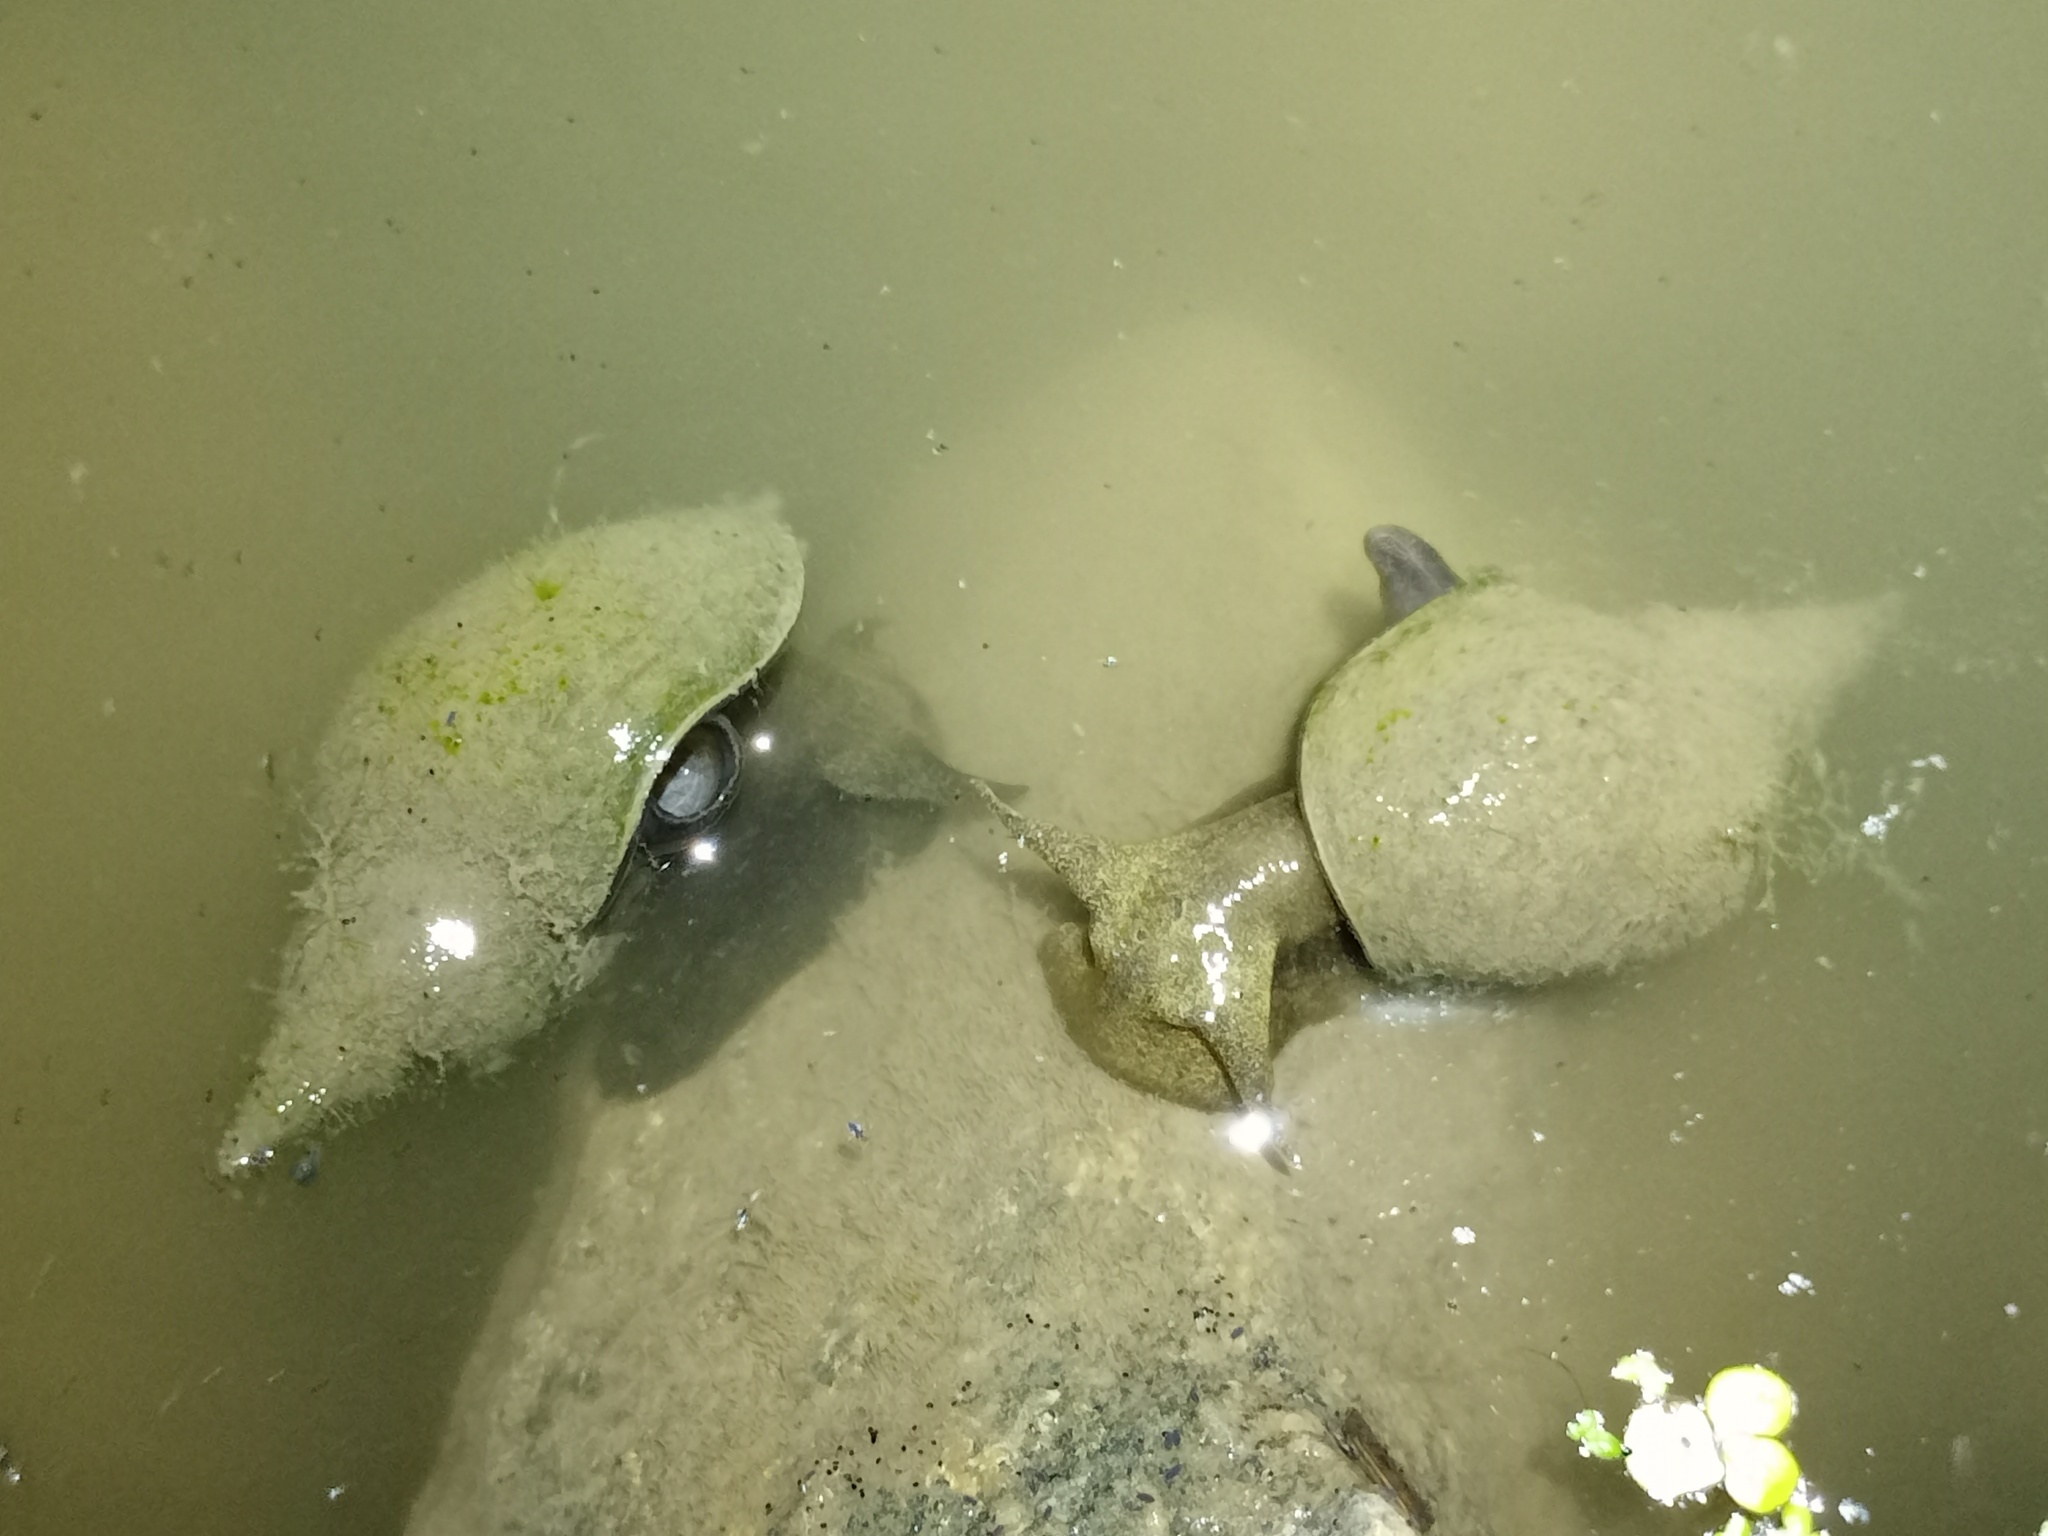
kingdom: Animalia
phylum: Mollusca
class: Gastropoda
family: Lymnaeidae
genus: Lymnaea
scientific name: Lymnaea stagnalis
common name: Great pond snail
